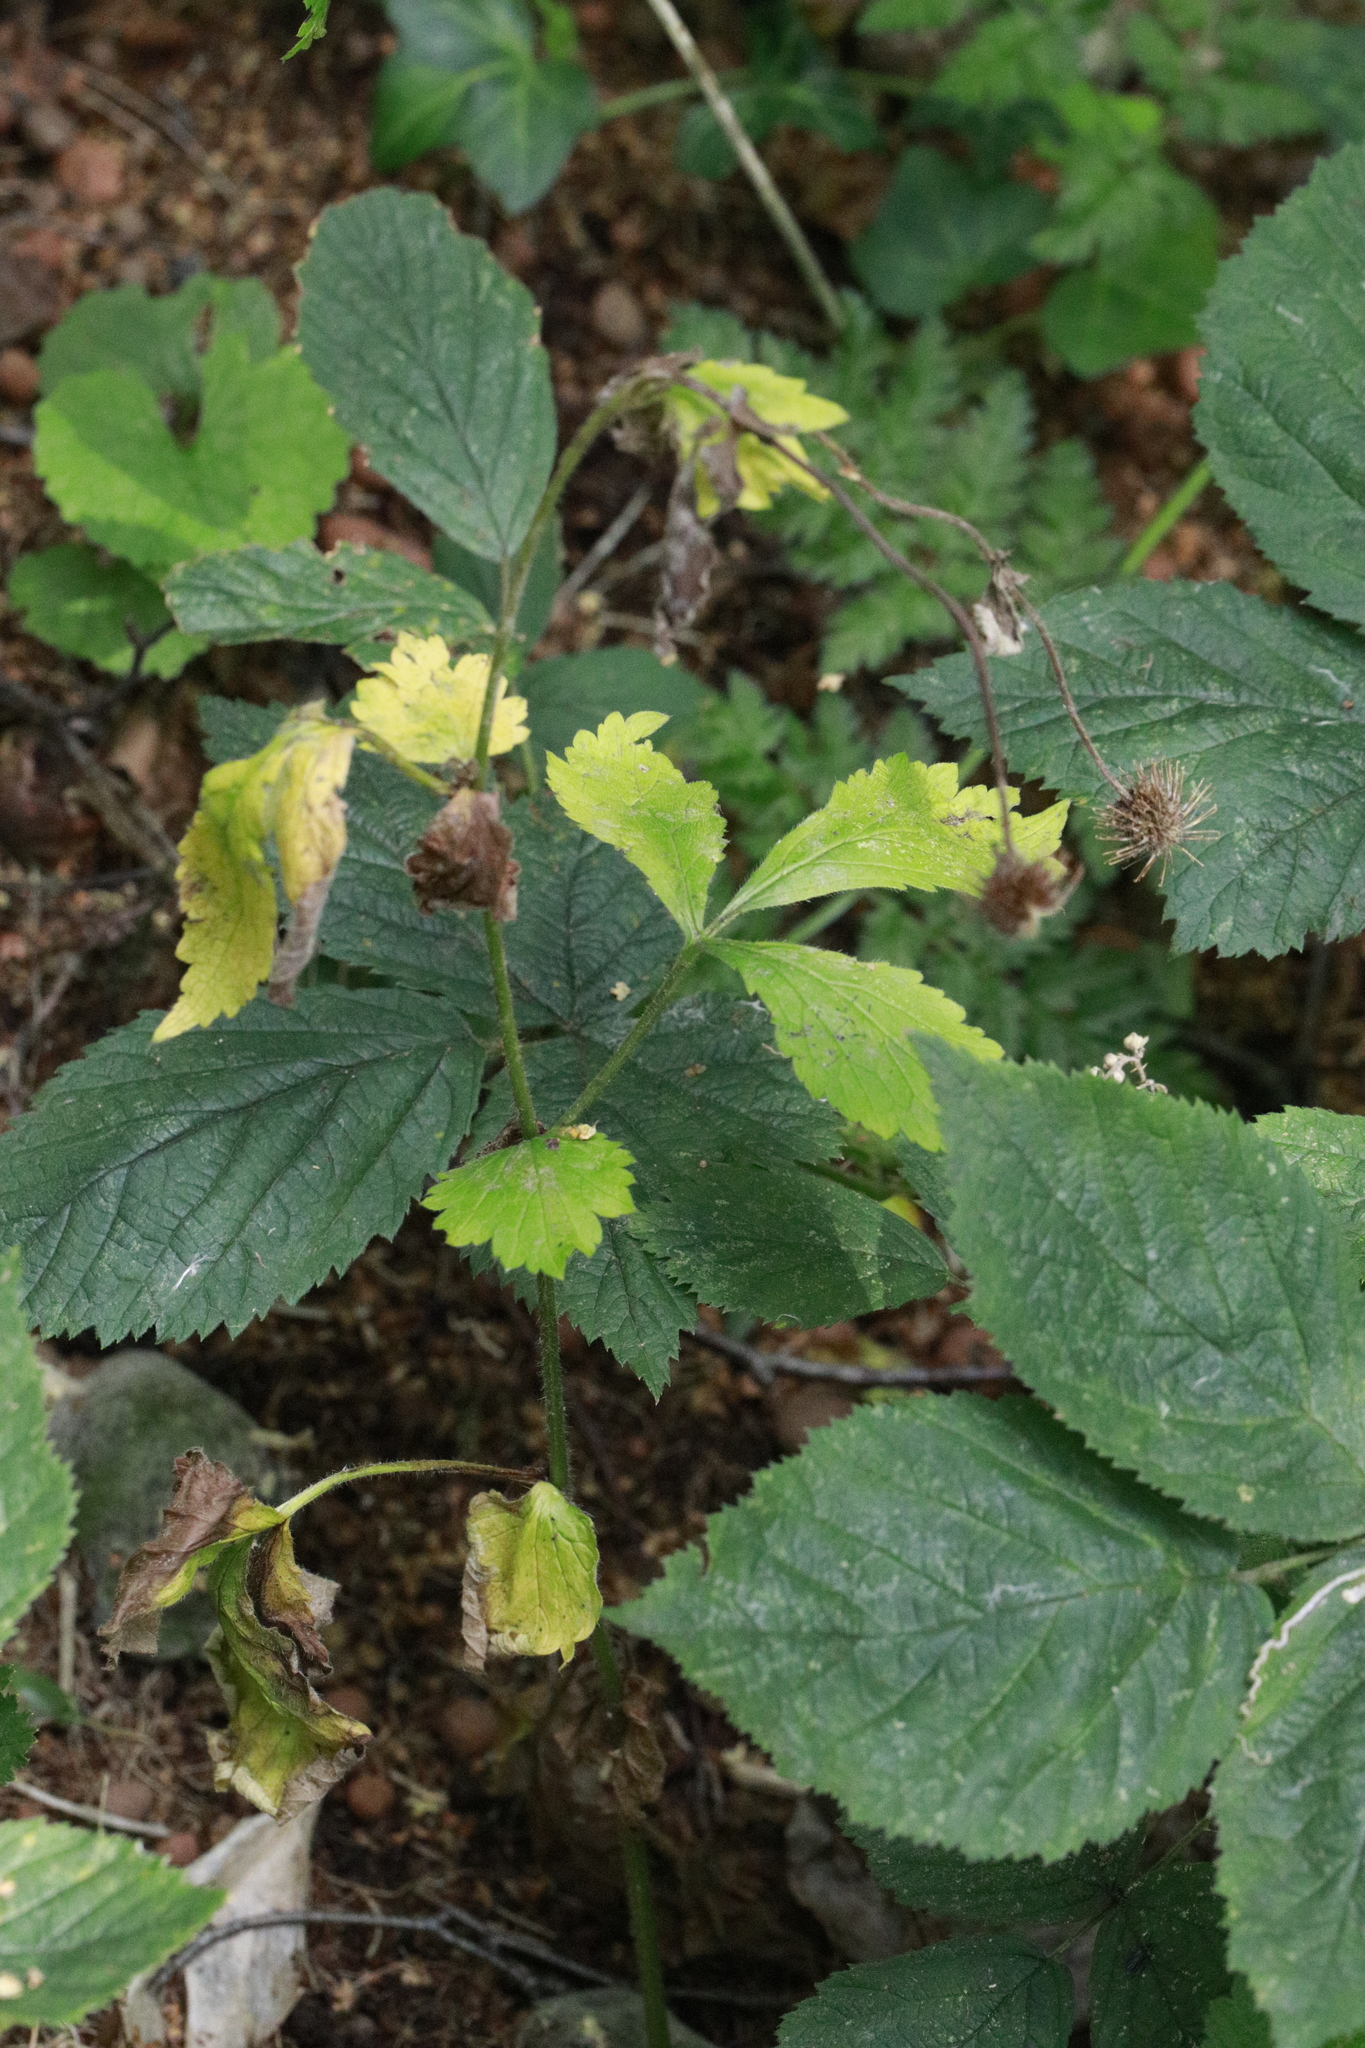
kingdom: Plantae
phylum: Tracheophyta
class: Magnoliopsida
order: Rosales
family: Rosaceae
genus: Geum
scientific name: Geum urbanum
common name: Wood avens
